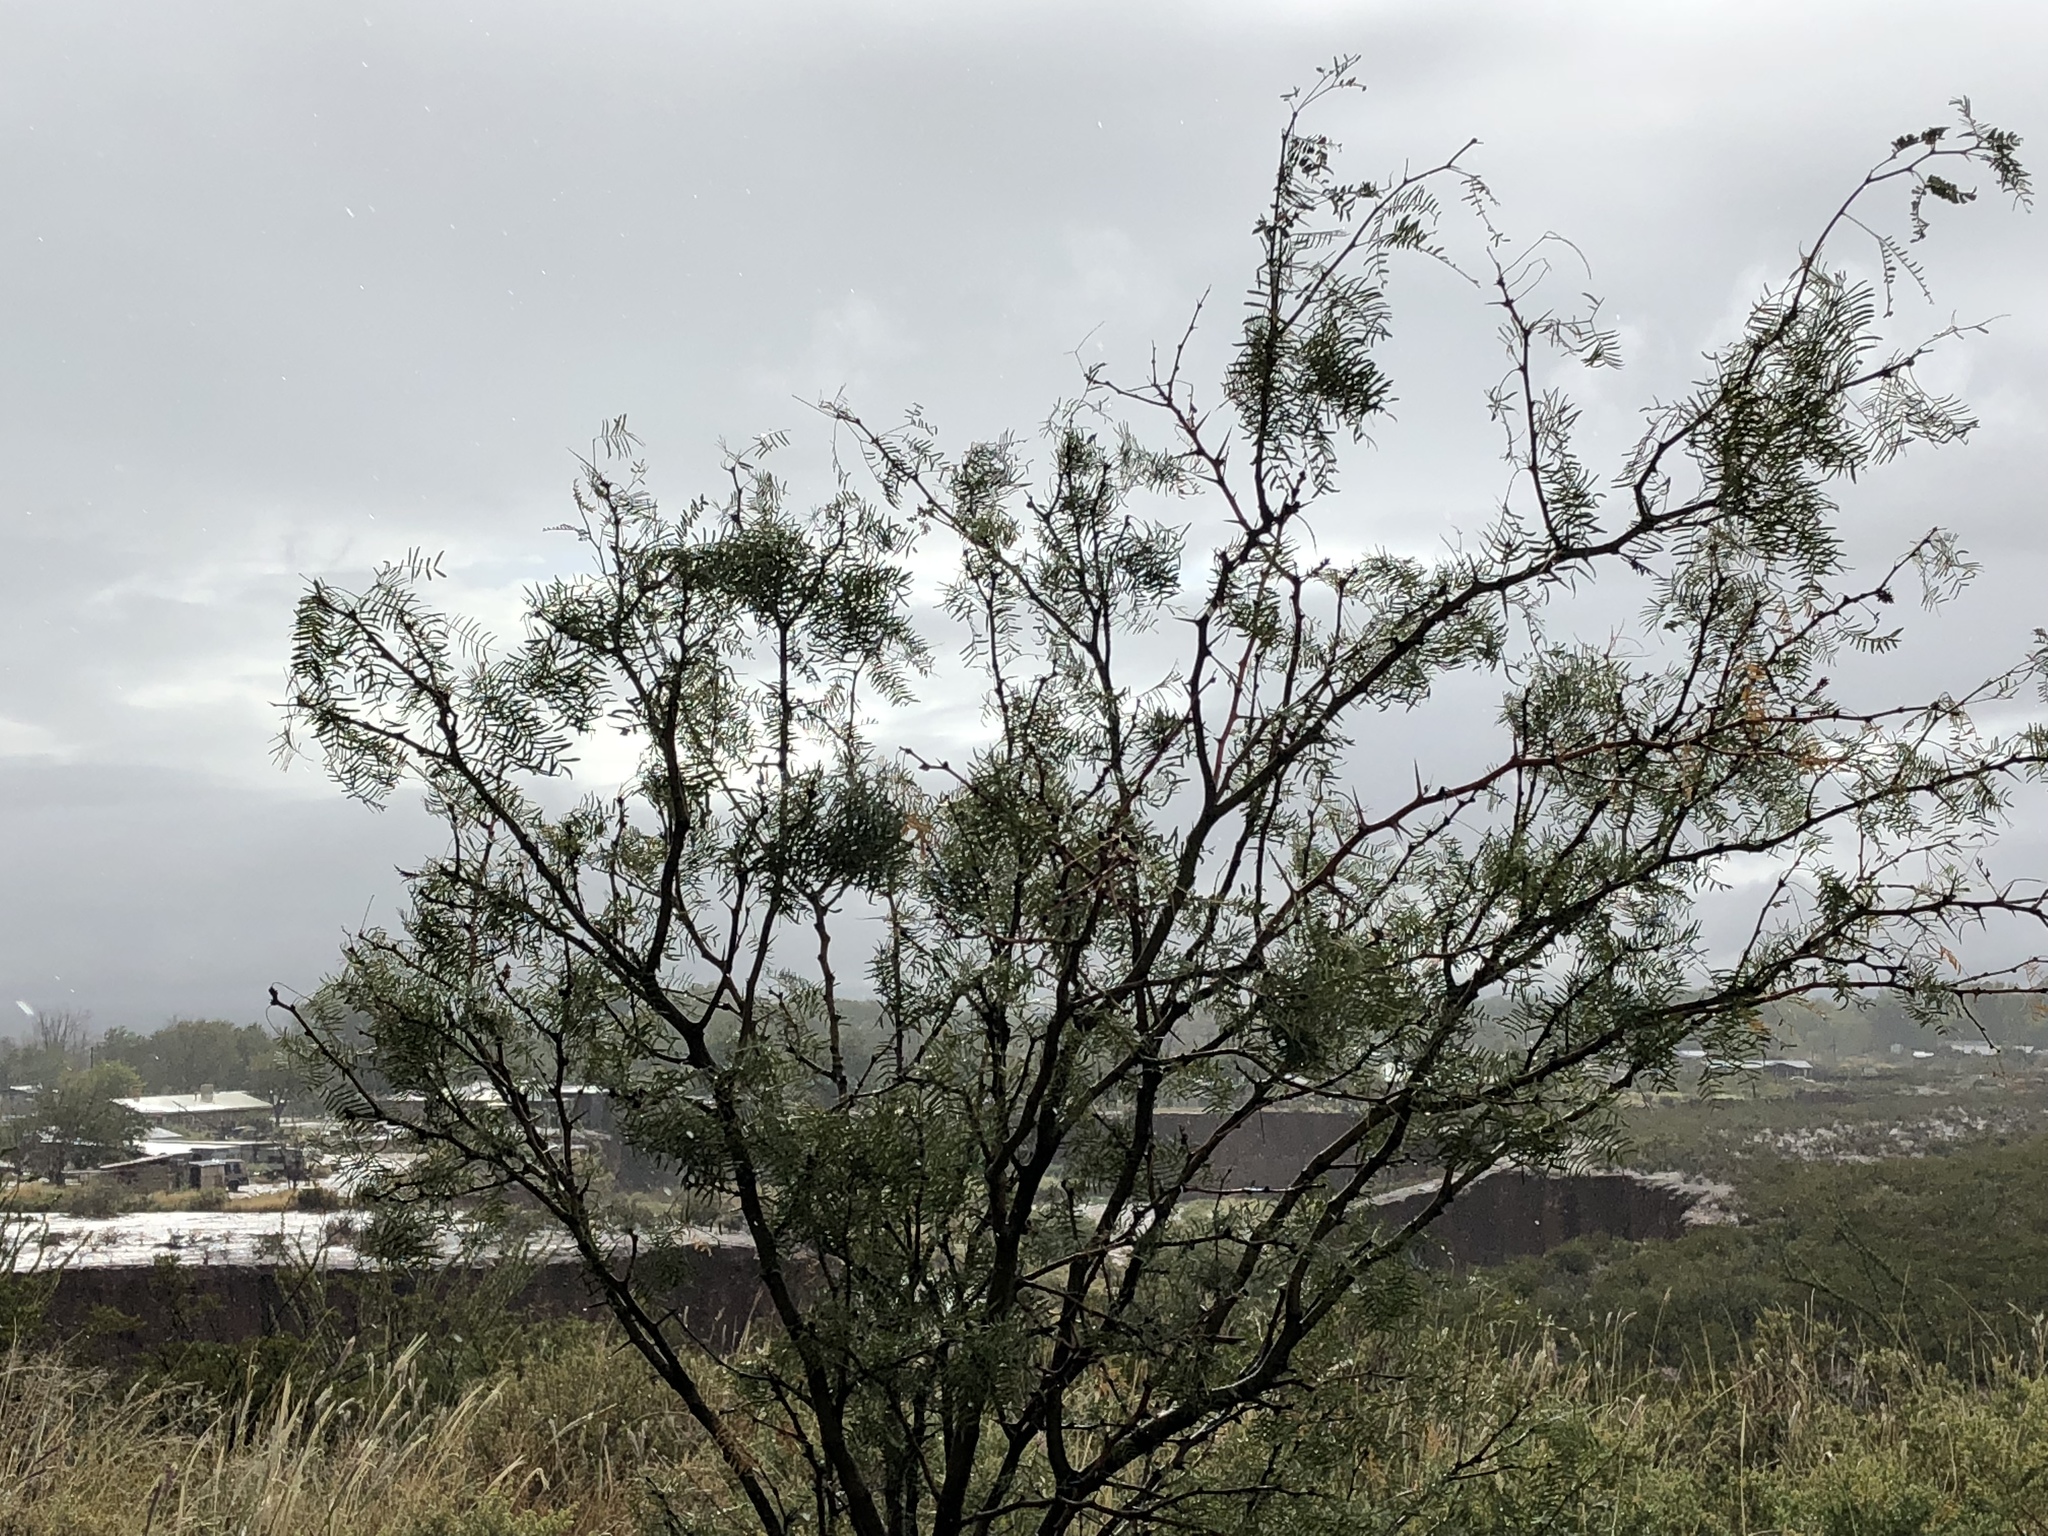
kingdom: Plantae
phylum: Tracheophyta
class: Magnoliopsida
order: Fabales
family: Fabaceae
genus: Prosopis
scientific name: Prosopis glandulosa
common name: Honey mesquite
